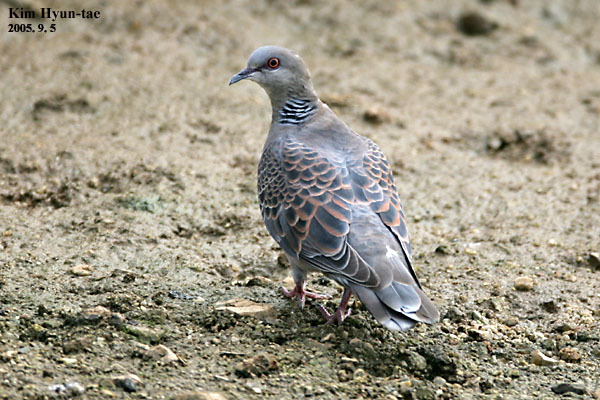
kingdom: Animalia
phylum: Chordata
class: Aves
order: Columbiformes
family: Columbidae
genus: Streptopelia
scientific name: Streptopelia orientalis
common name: Oriental turtle dove
